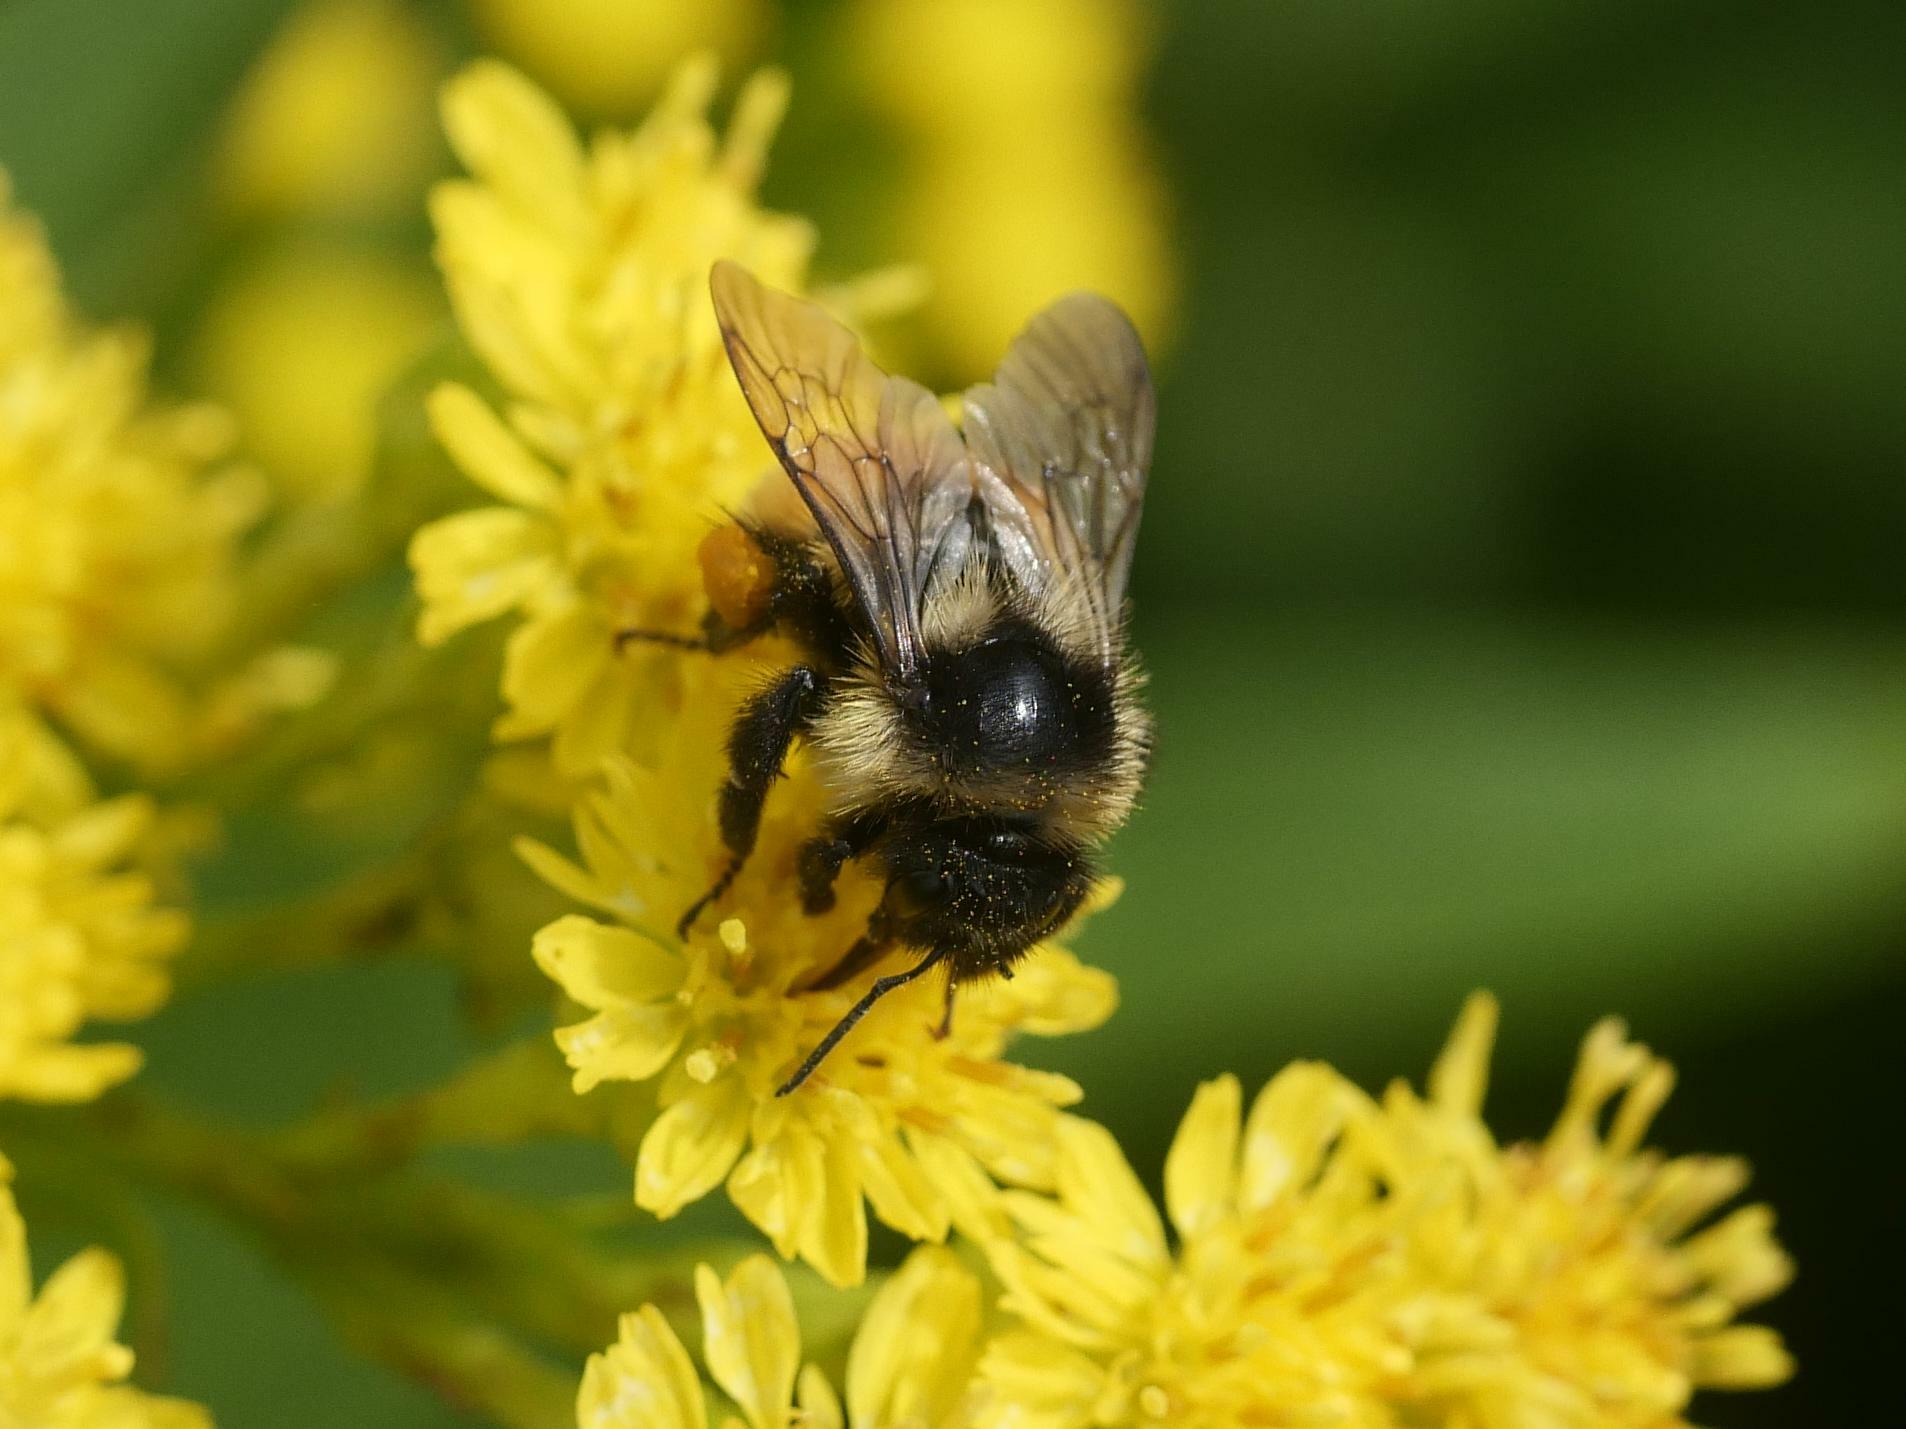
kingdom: Animalia
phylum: Arthropoda
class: Insecta
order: Hymenoptera
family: Apidae
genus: Bombus
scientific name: Bombus ternarius
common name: Tri-colored bumble bee
